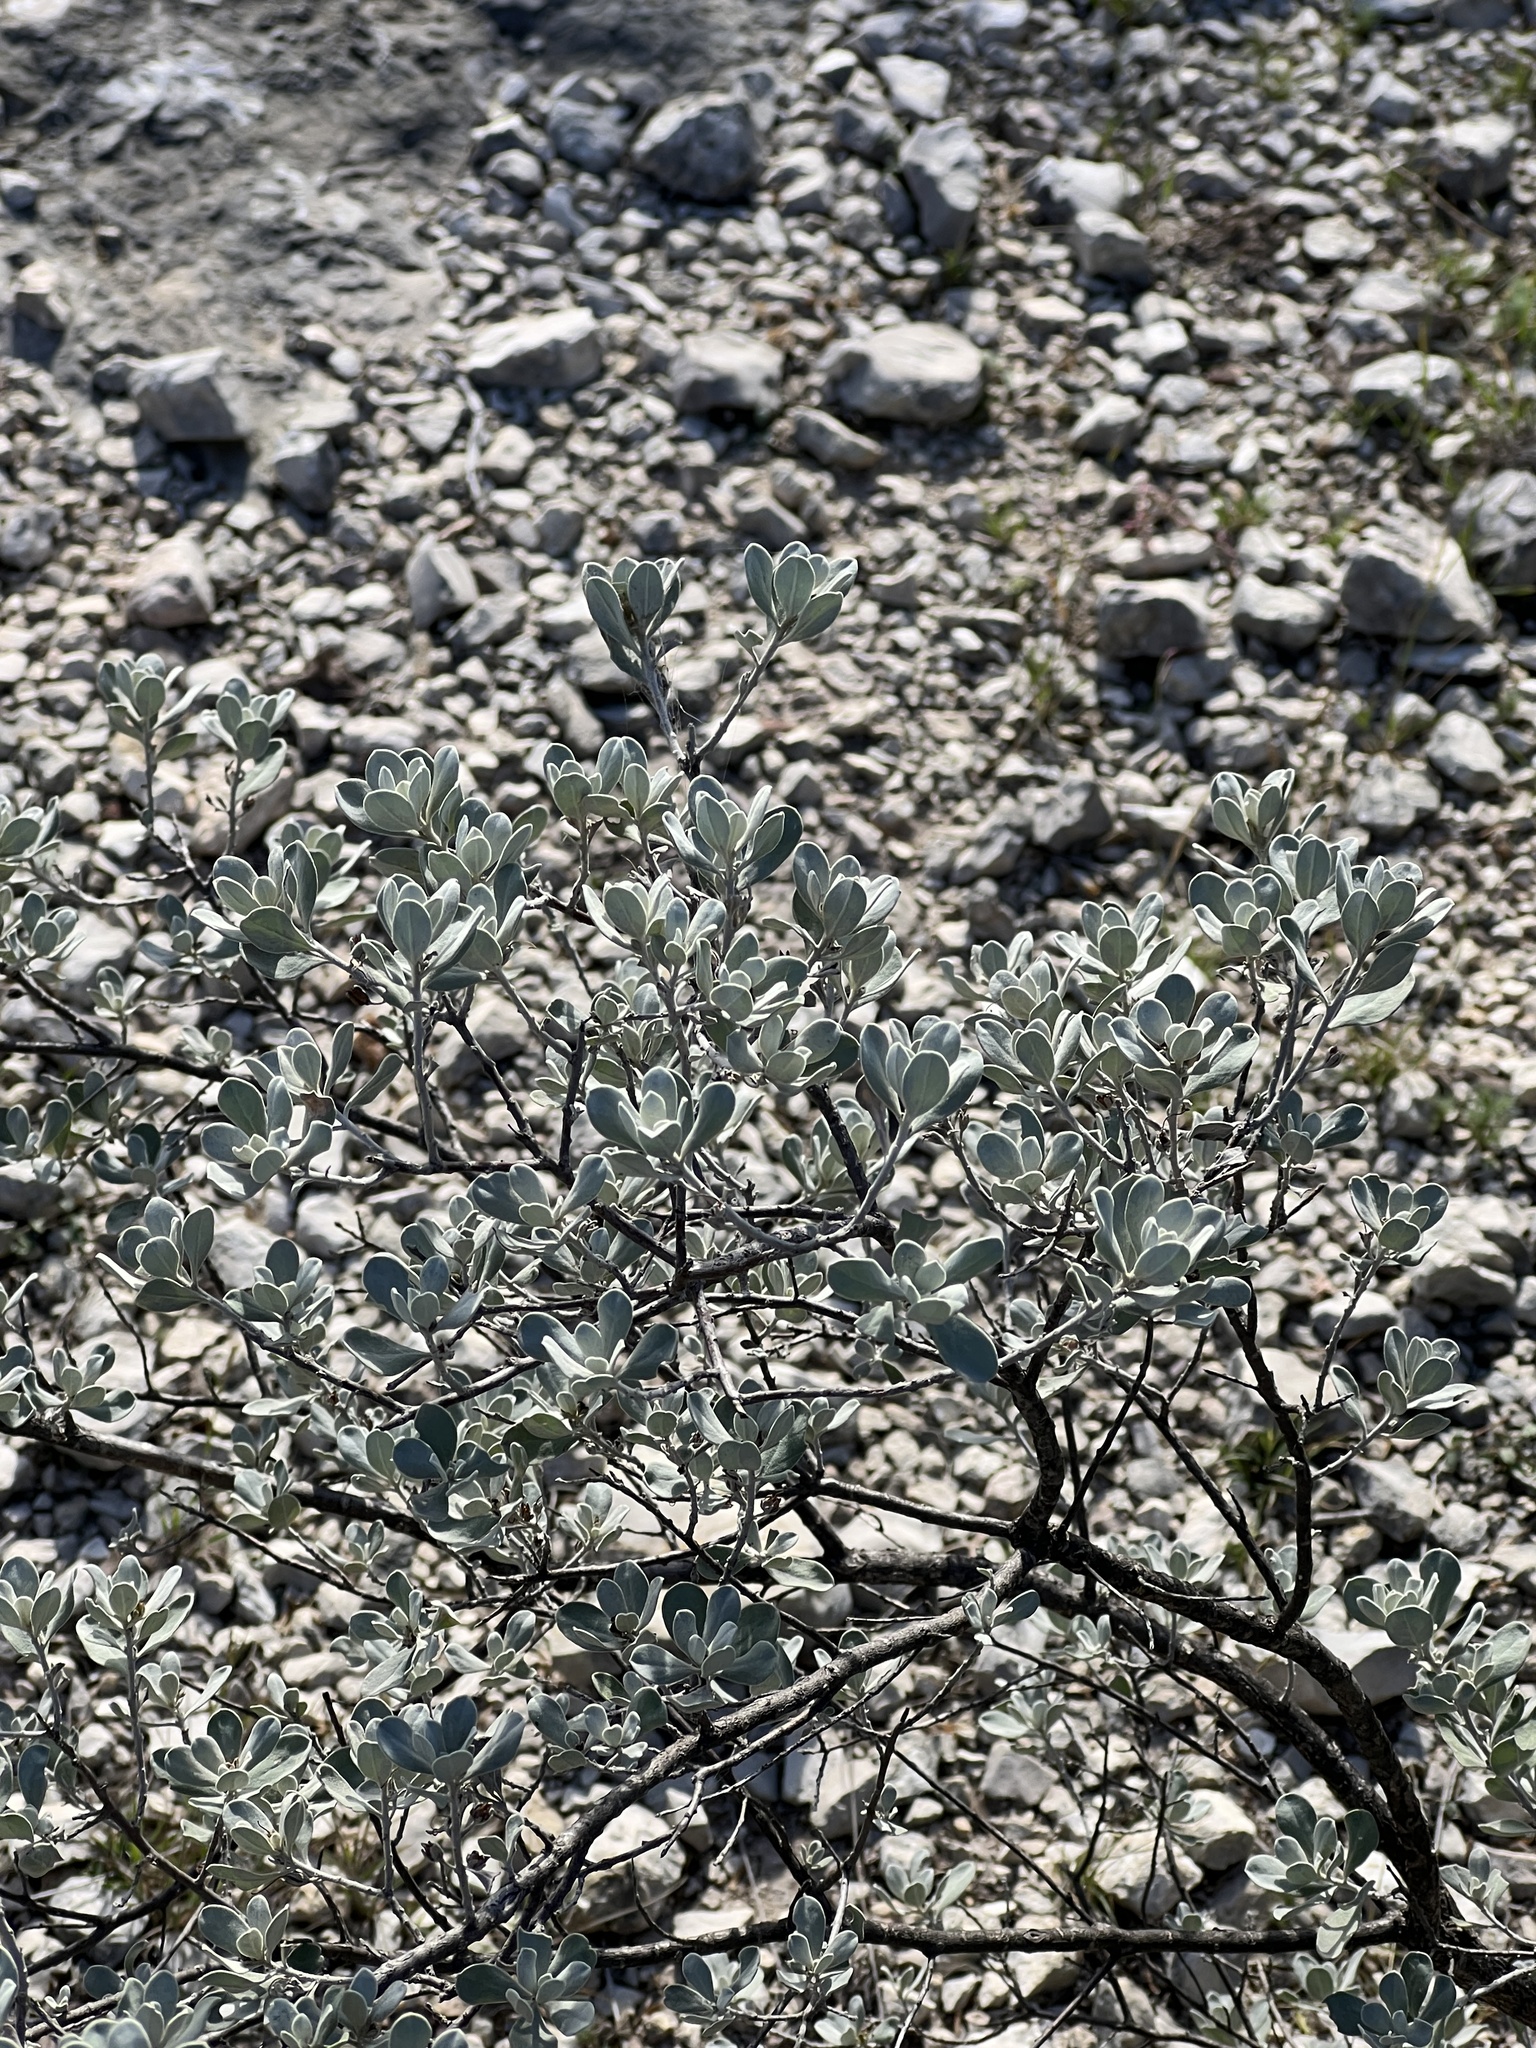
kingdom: Plantae
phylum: Tracheophyta
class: Magnoliopsida
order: Lamiales
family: Scrophulariaceae
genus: Leucophyllum
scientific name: Leucophyllum frutescens
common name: Texas silverleaf
